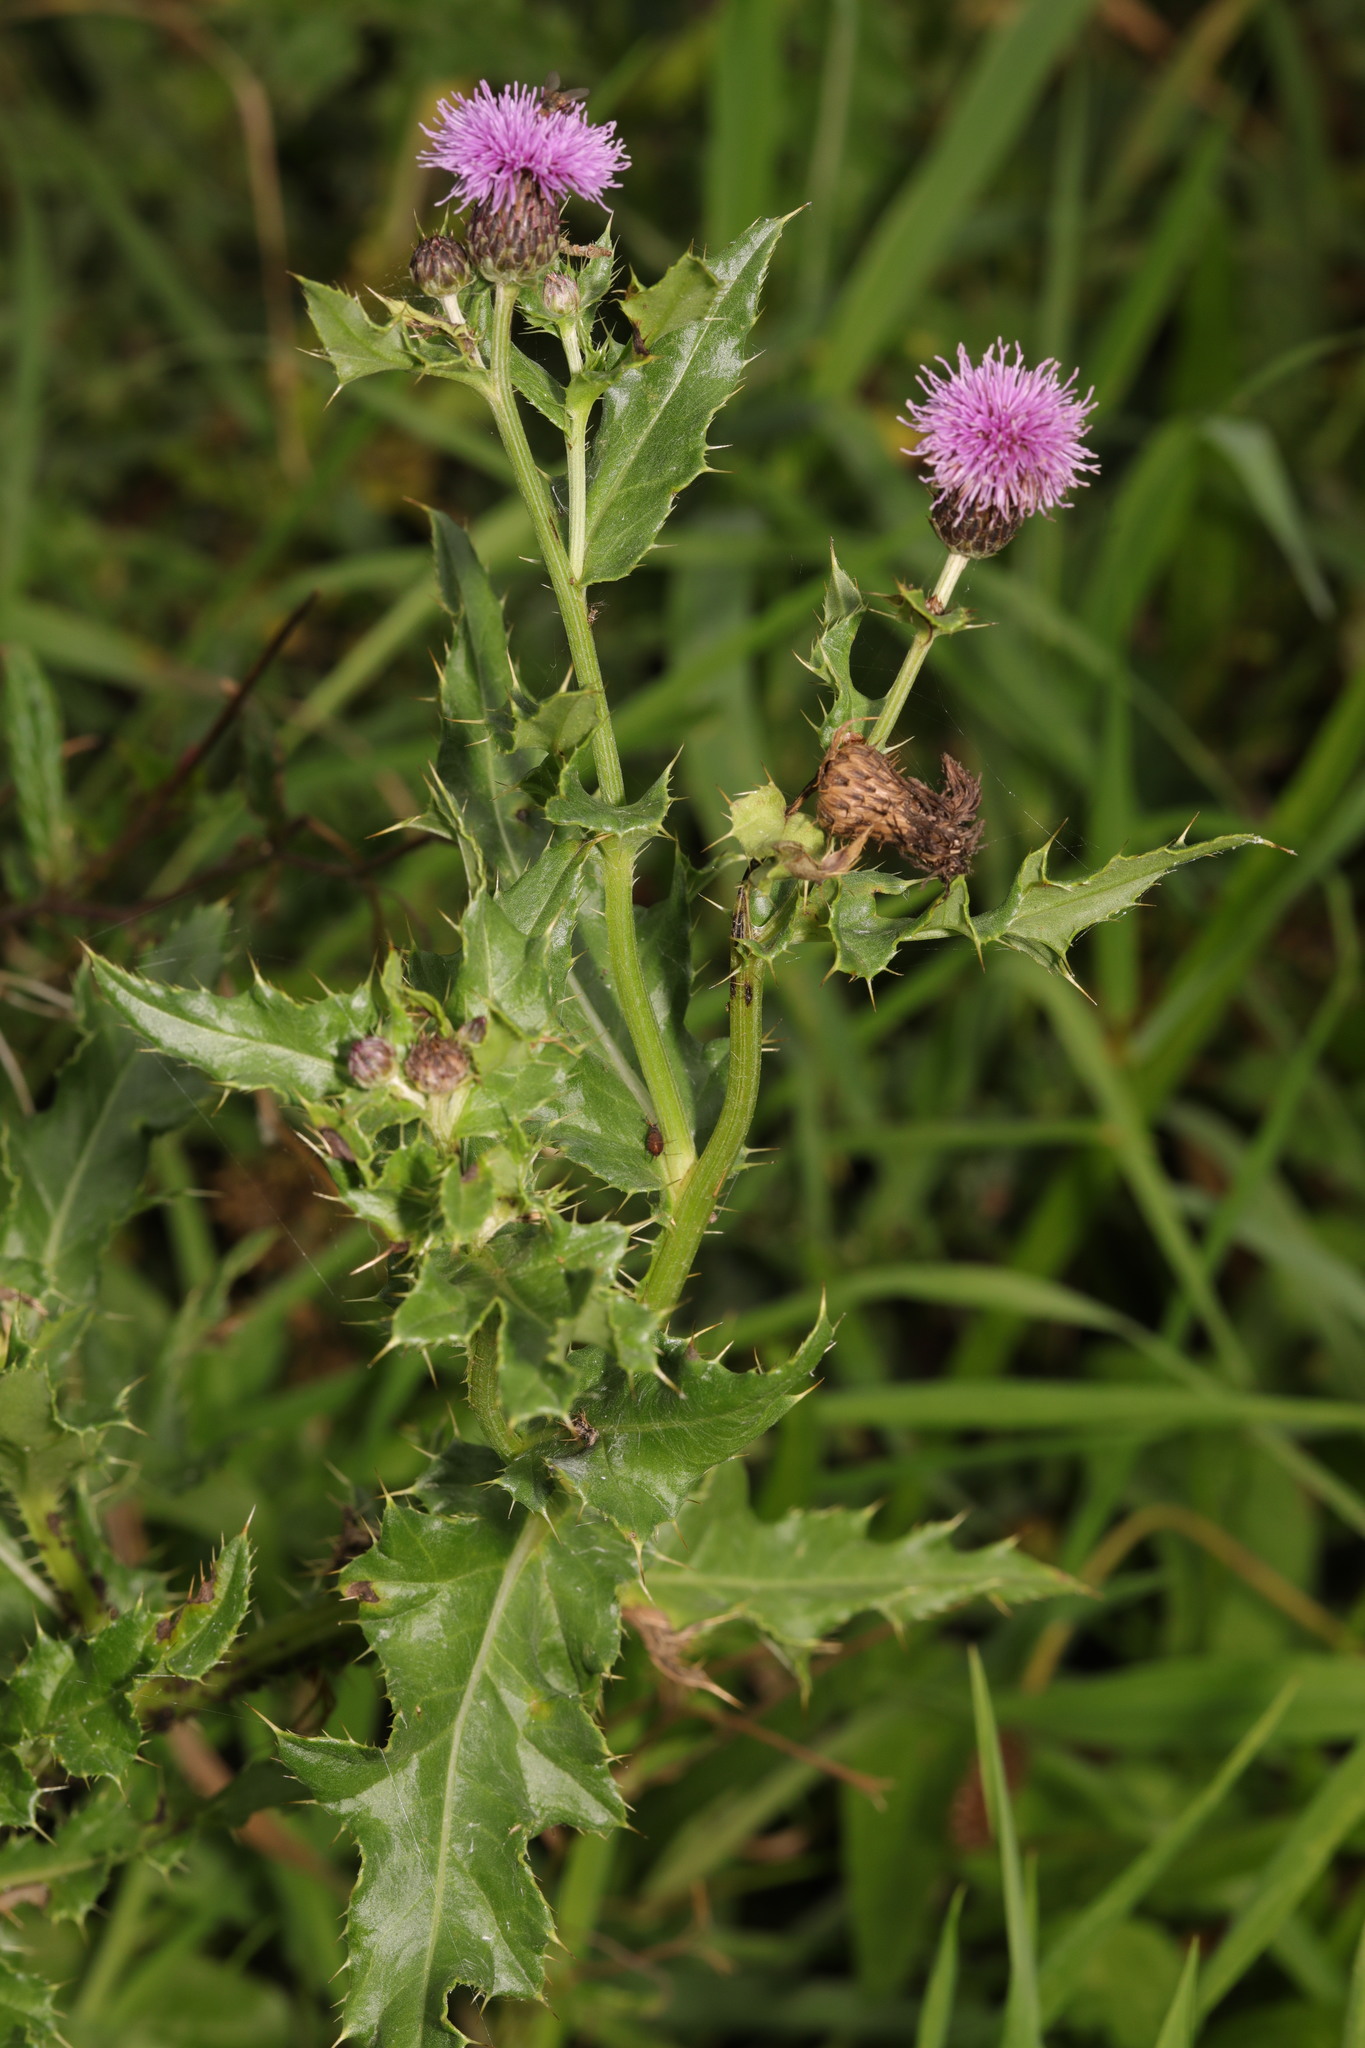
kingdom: Plantae
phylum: Tracheophyta
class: Magnoliopsida
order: Asterales
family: Asteraceae
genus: Cirsium
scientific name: Cirsium arvense
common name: Creeping thistle
